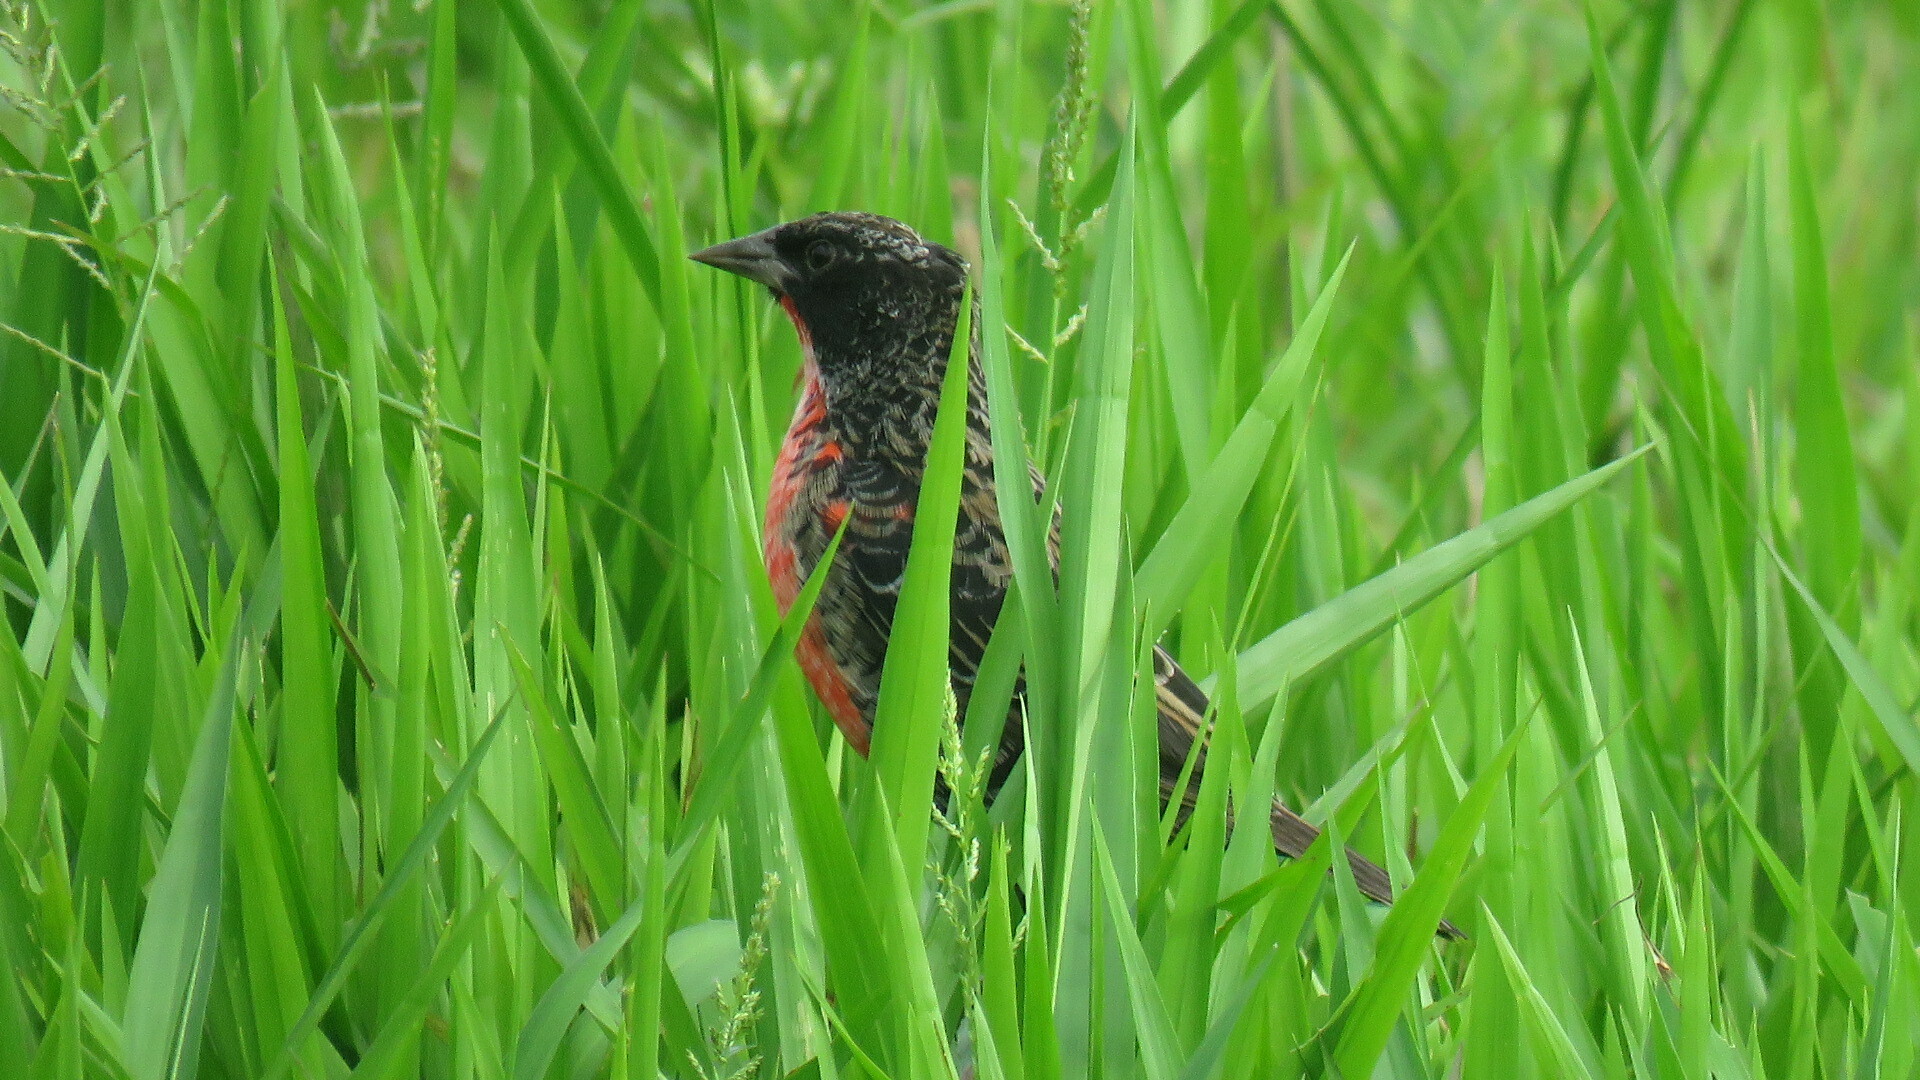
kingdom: Animalia
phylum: Chordata
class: Aves
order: Passeriformes
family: Icteridae
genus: Sturnella
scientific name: Sturnella militaris
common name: Red-breasted blackbird
